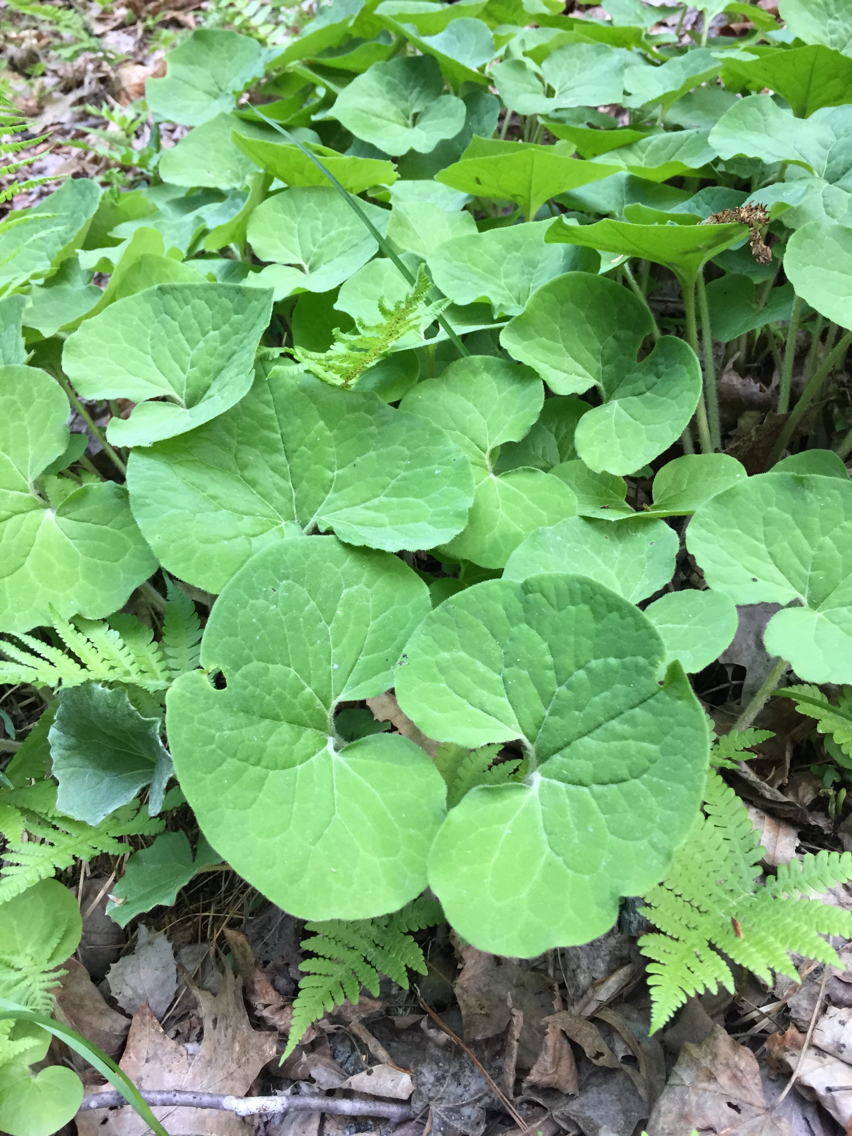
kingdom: Plantae
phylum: Tracheophyta
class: Magnoliopsida
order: Piperales
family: Aristolochiaceae
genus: Asarum
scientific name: Asarum canadense
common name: Wild ginger
